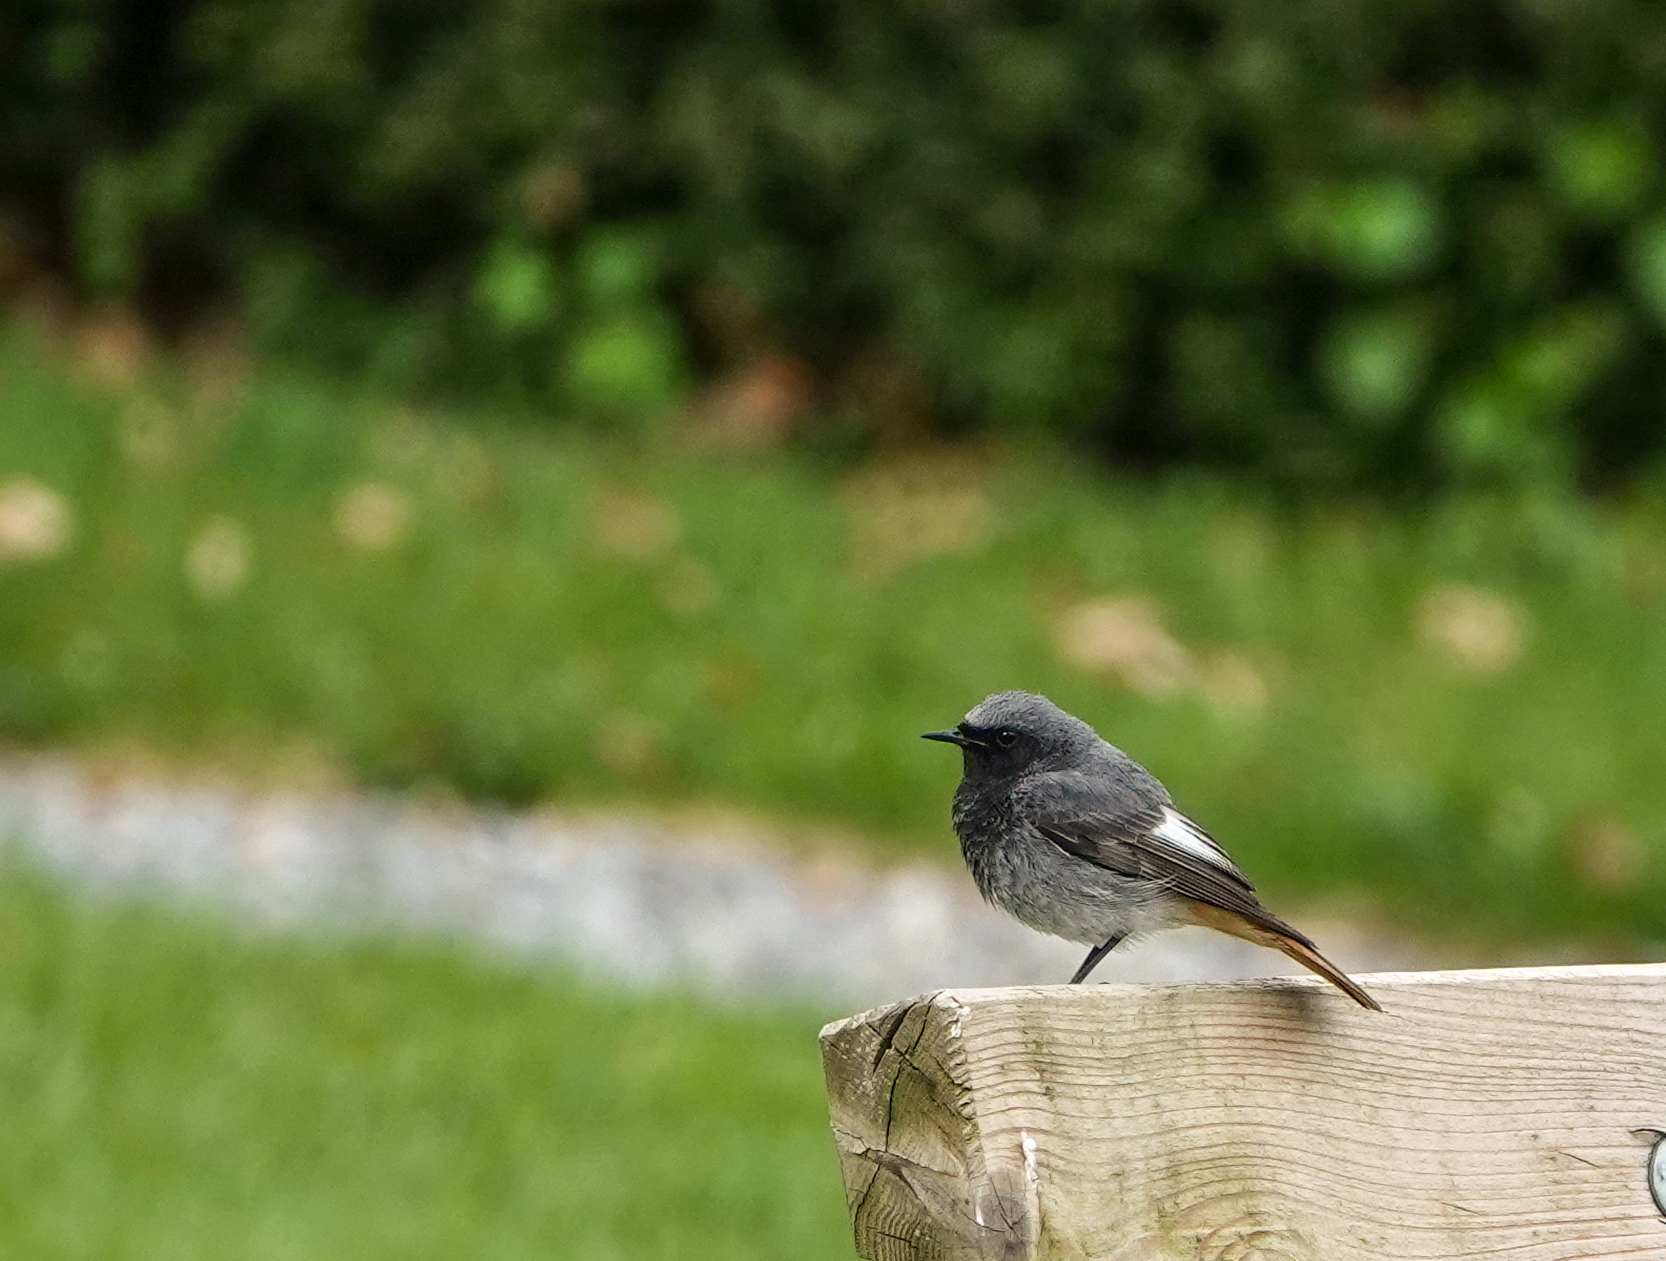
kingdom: Animalia
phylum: Chordata
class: Aves
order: Passeriformes
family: Muscicapidae
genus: Phoenicurus
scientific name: Phoenicurus ochruros
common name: Black redstart
